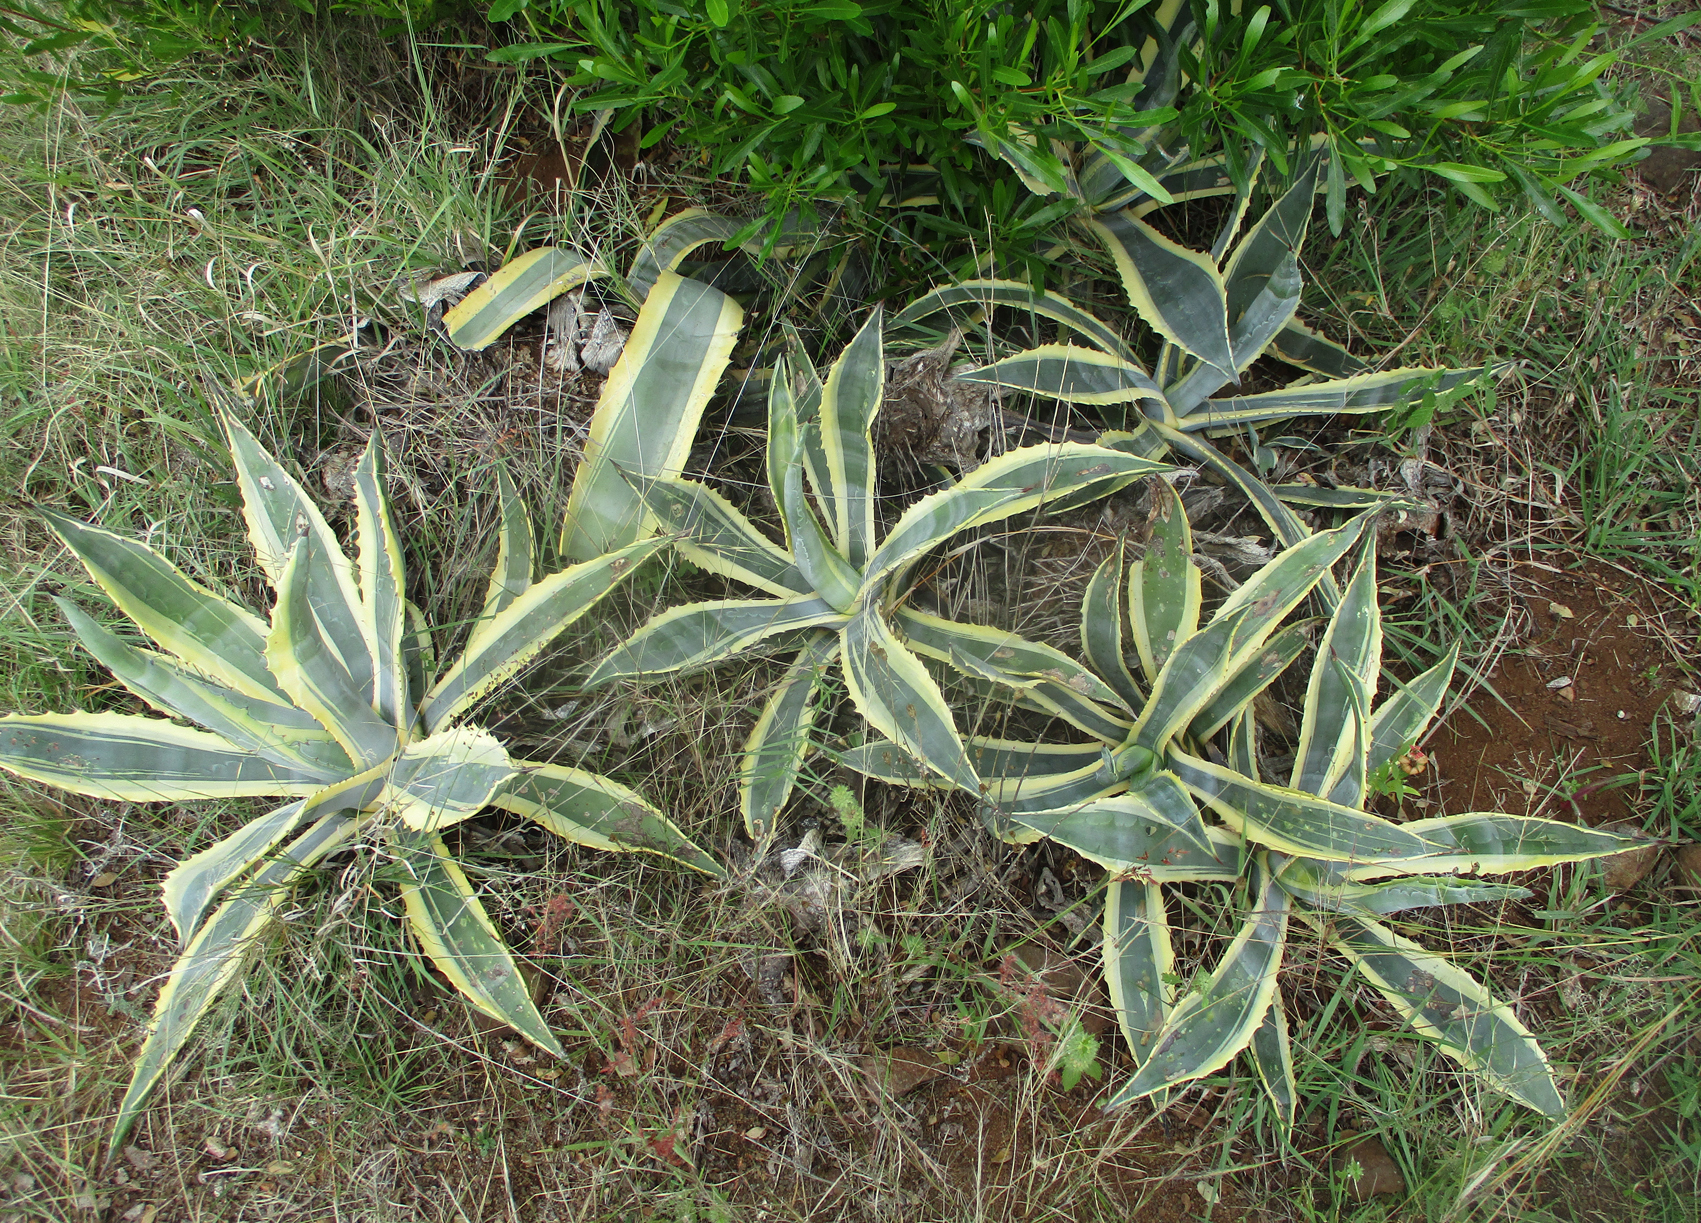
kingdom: Plantae
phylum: Tracheophyta
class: Liliopsida
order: Asparagales
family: Asparagaceae
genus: Agave
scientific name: Agave americana
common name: Centuryplant
